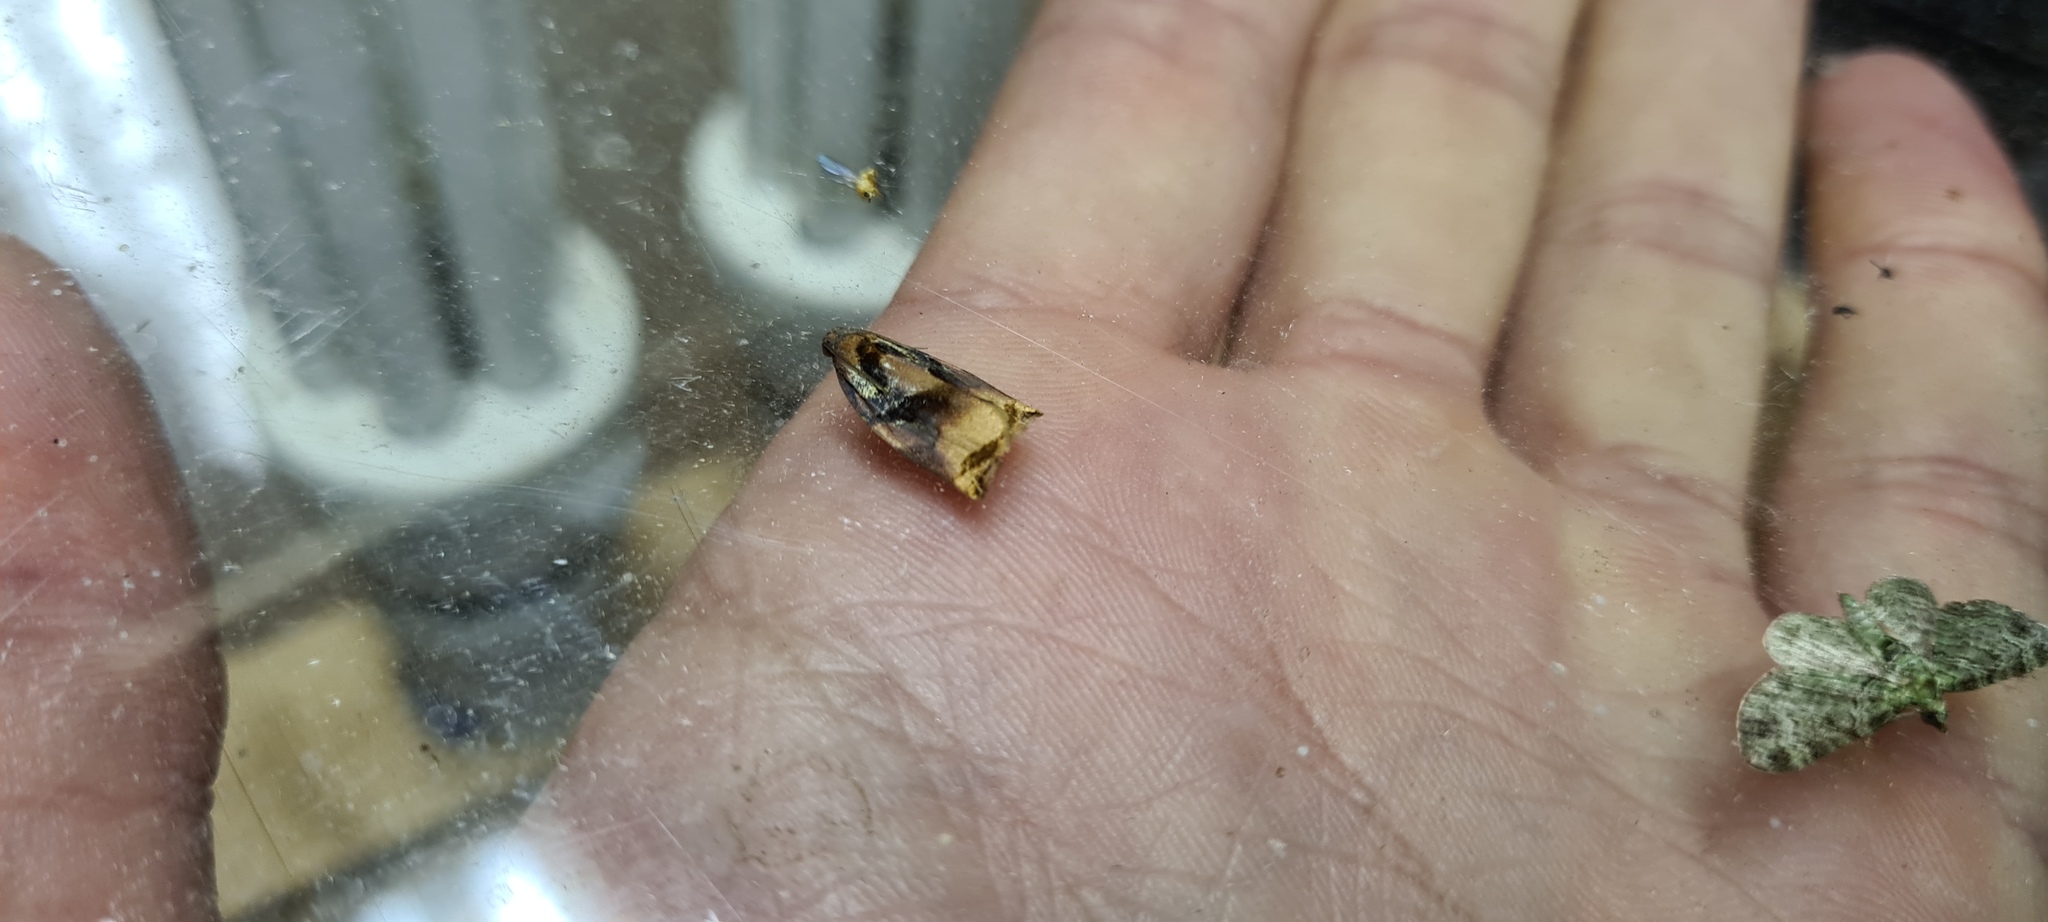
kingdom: Animalia
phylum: Arthropoda
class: Insecta
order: Lepidoptera
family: Tortricidae
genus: Archips
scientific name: Archips podana
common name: Large fruit-tree tortrix
